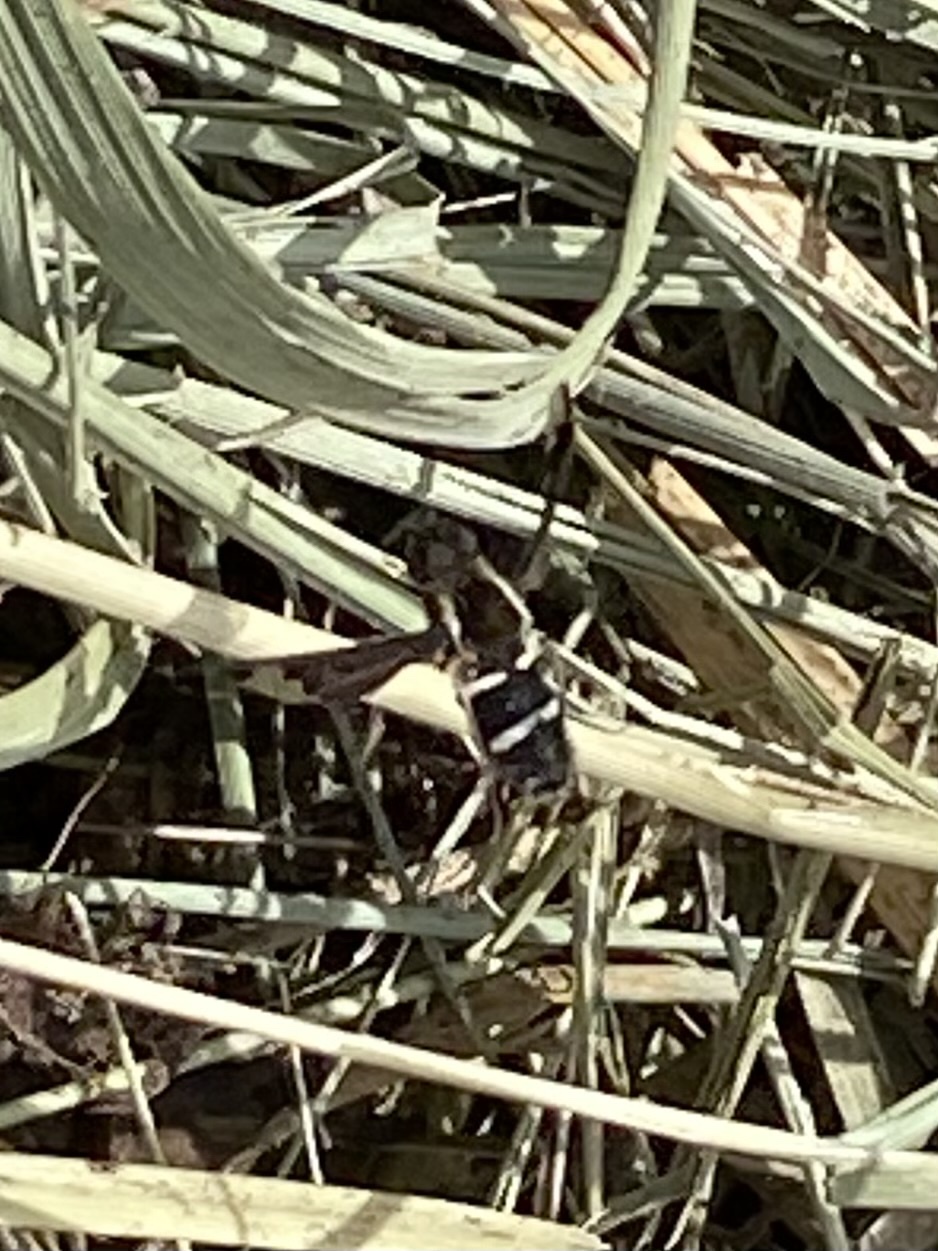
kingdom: Animalia
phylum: Arthropoda
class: Insecta
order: Diptera
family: Bombyliidae
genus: Hemipenthes
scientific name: Hemipenthes maura
